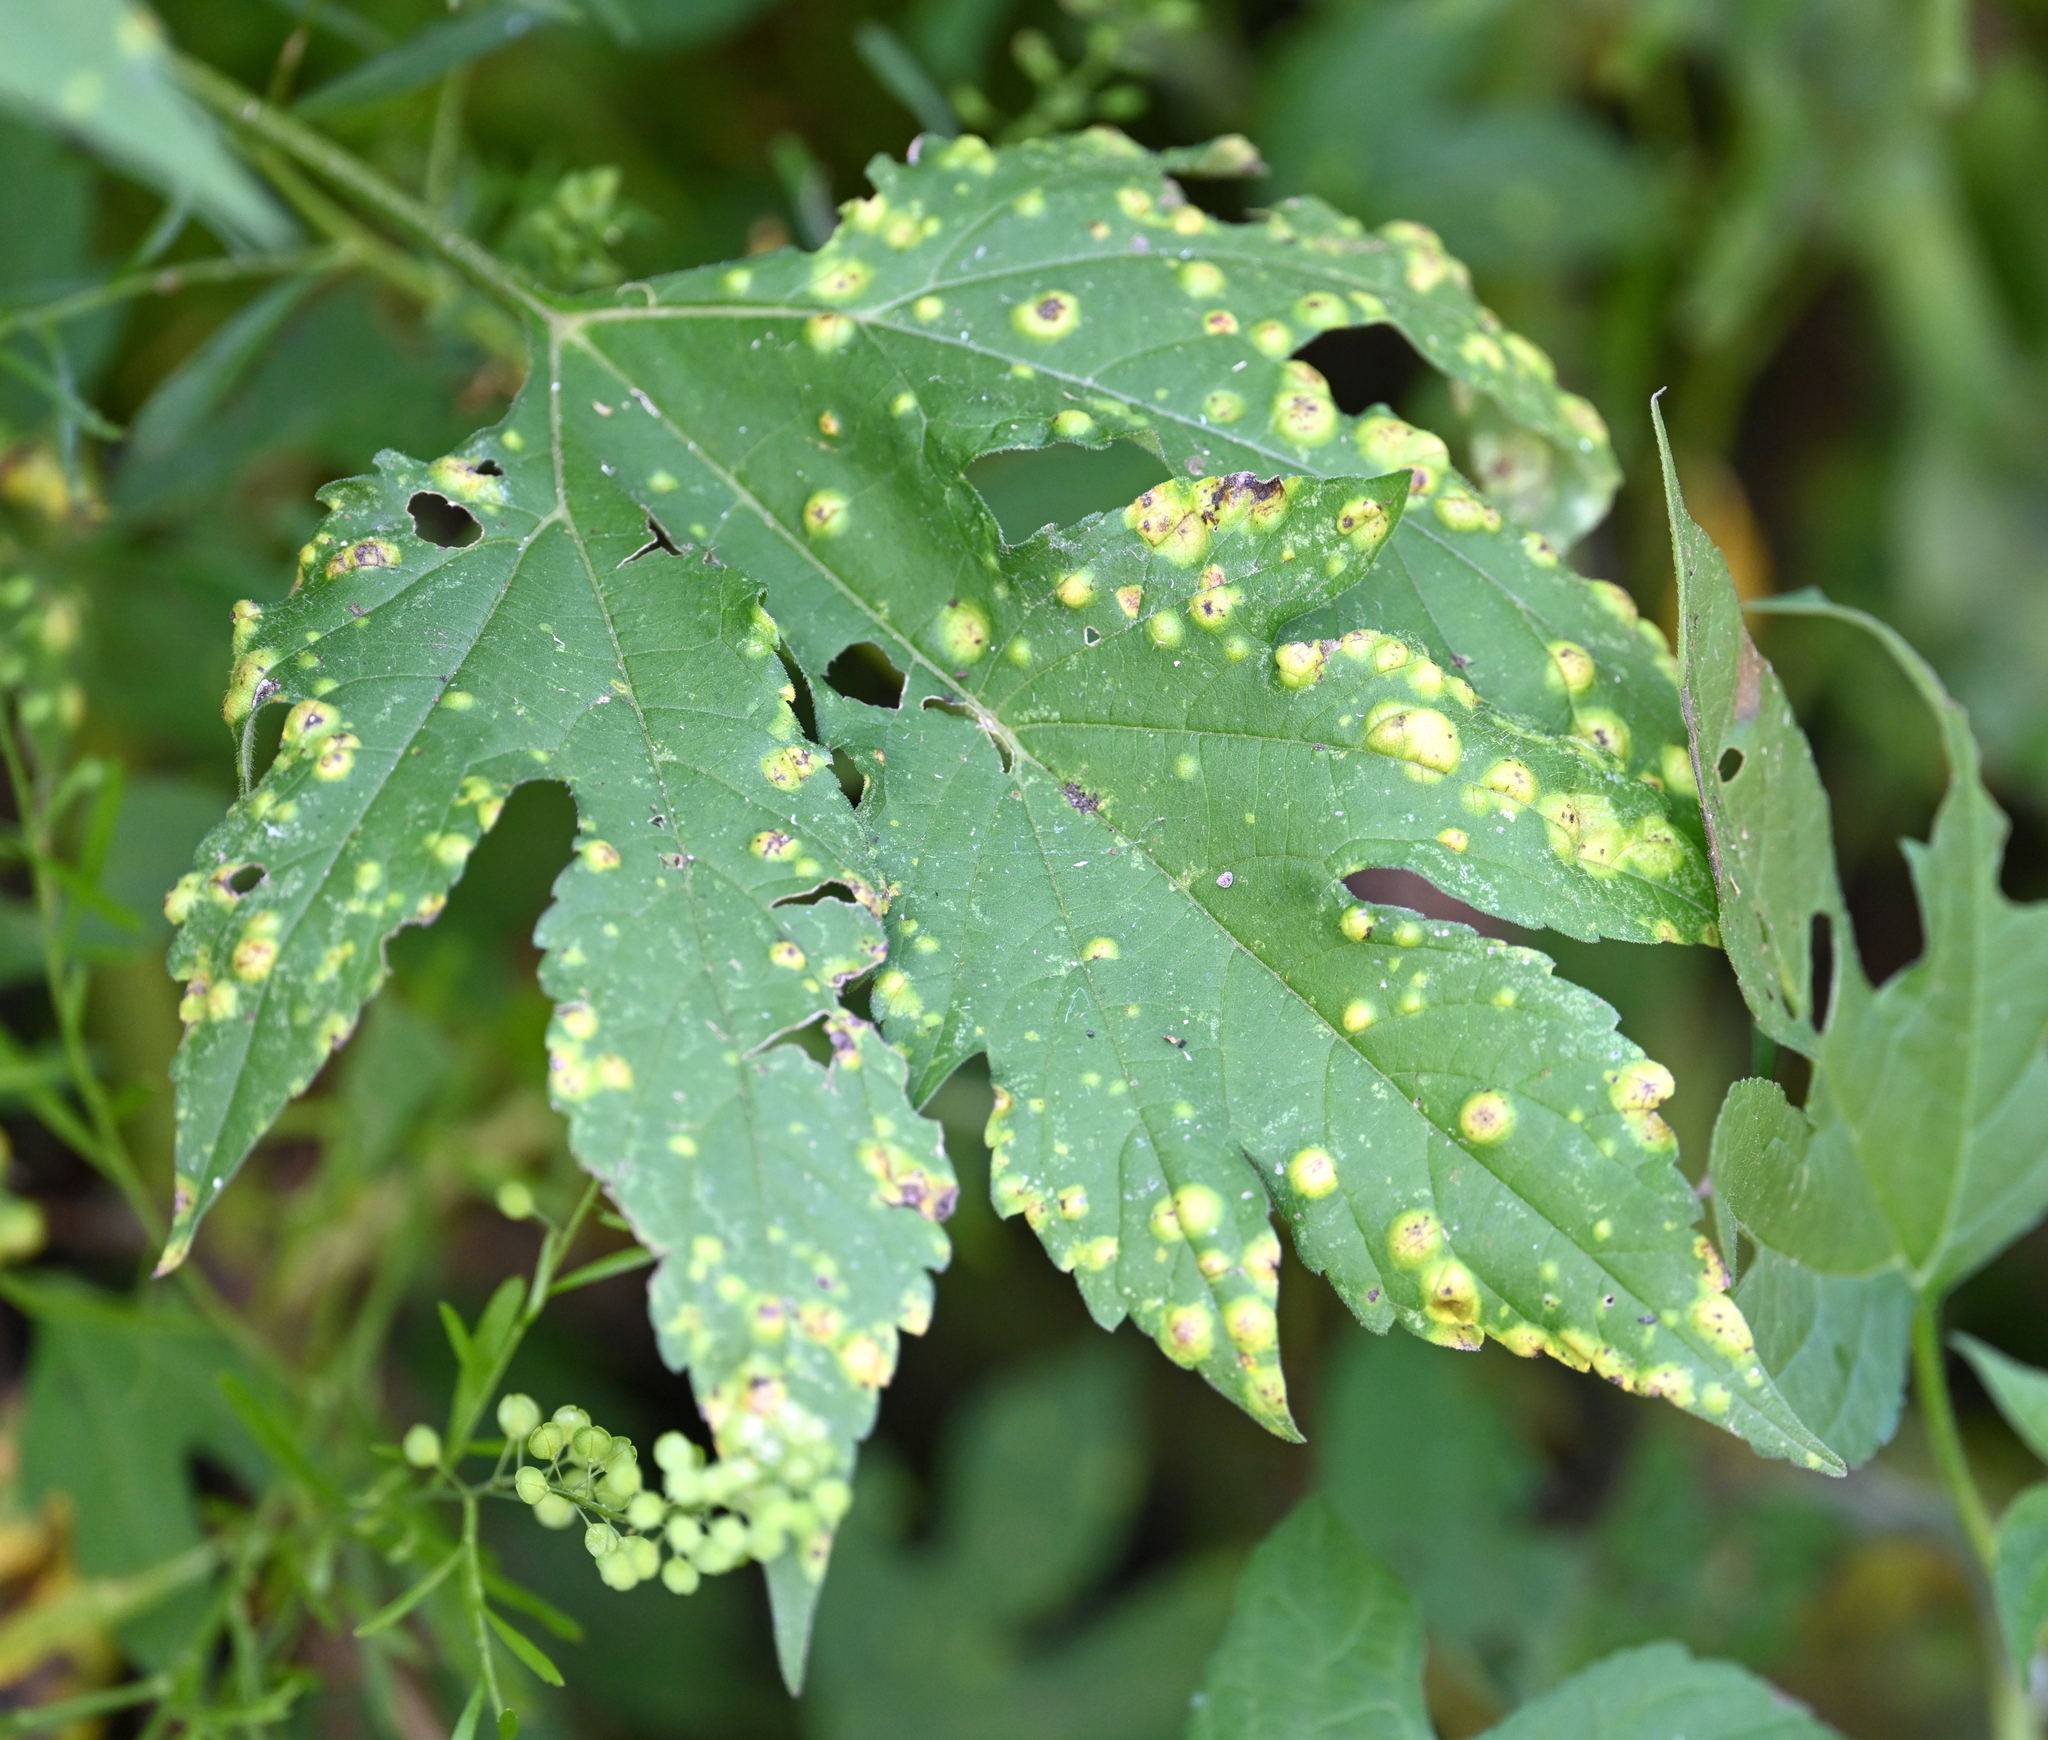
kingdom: Animalia
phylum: Arthropoda
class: Arachnida
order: Trombidiformes
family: Eriophyidae
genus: Aceria
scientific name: Aceria
